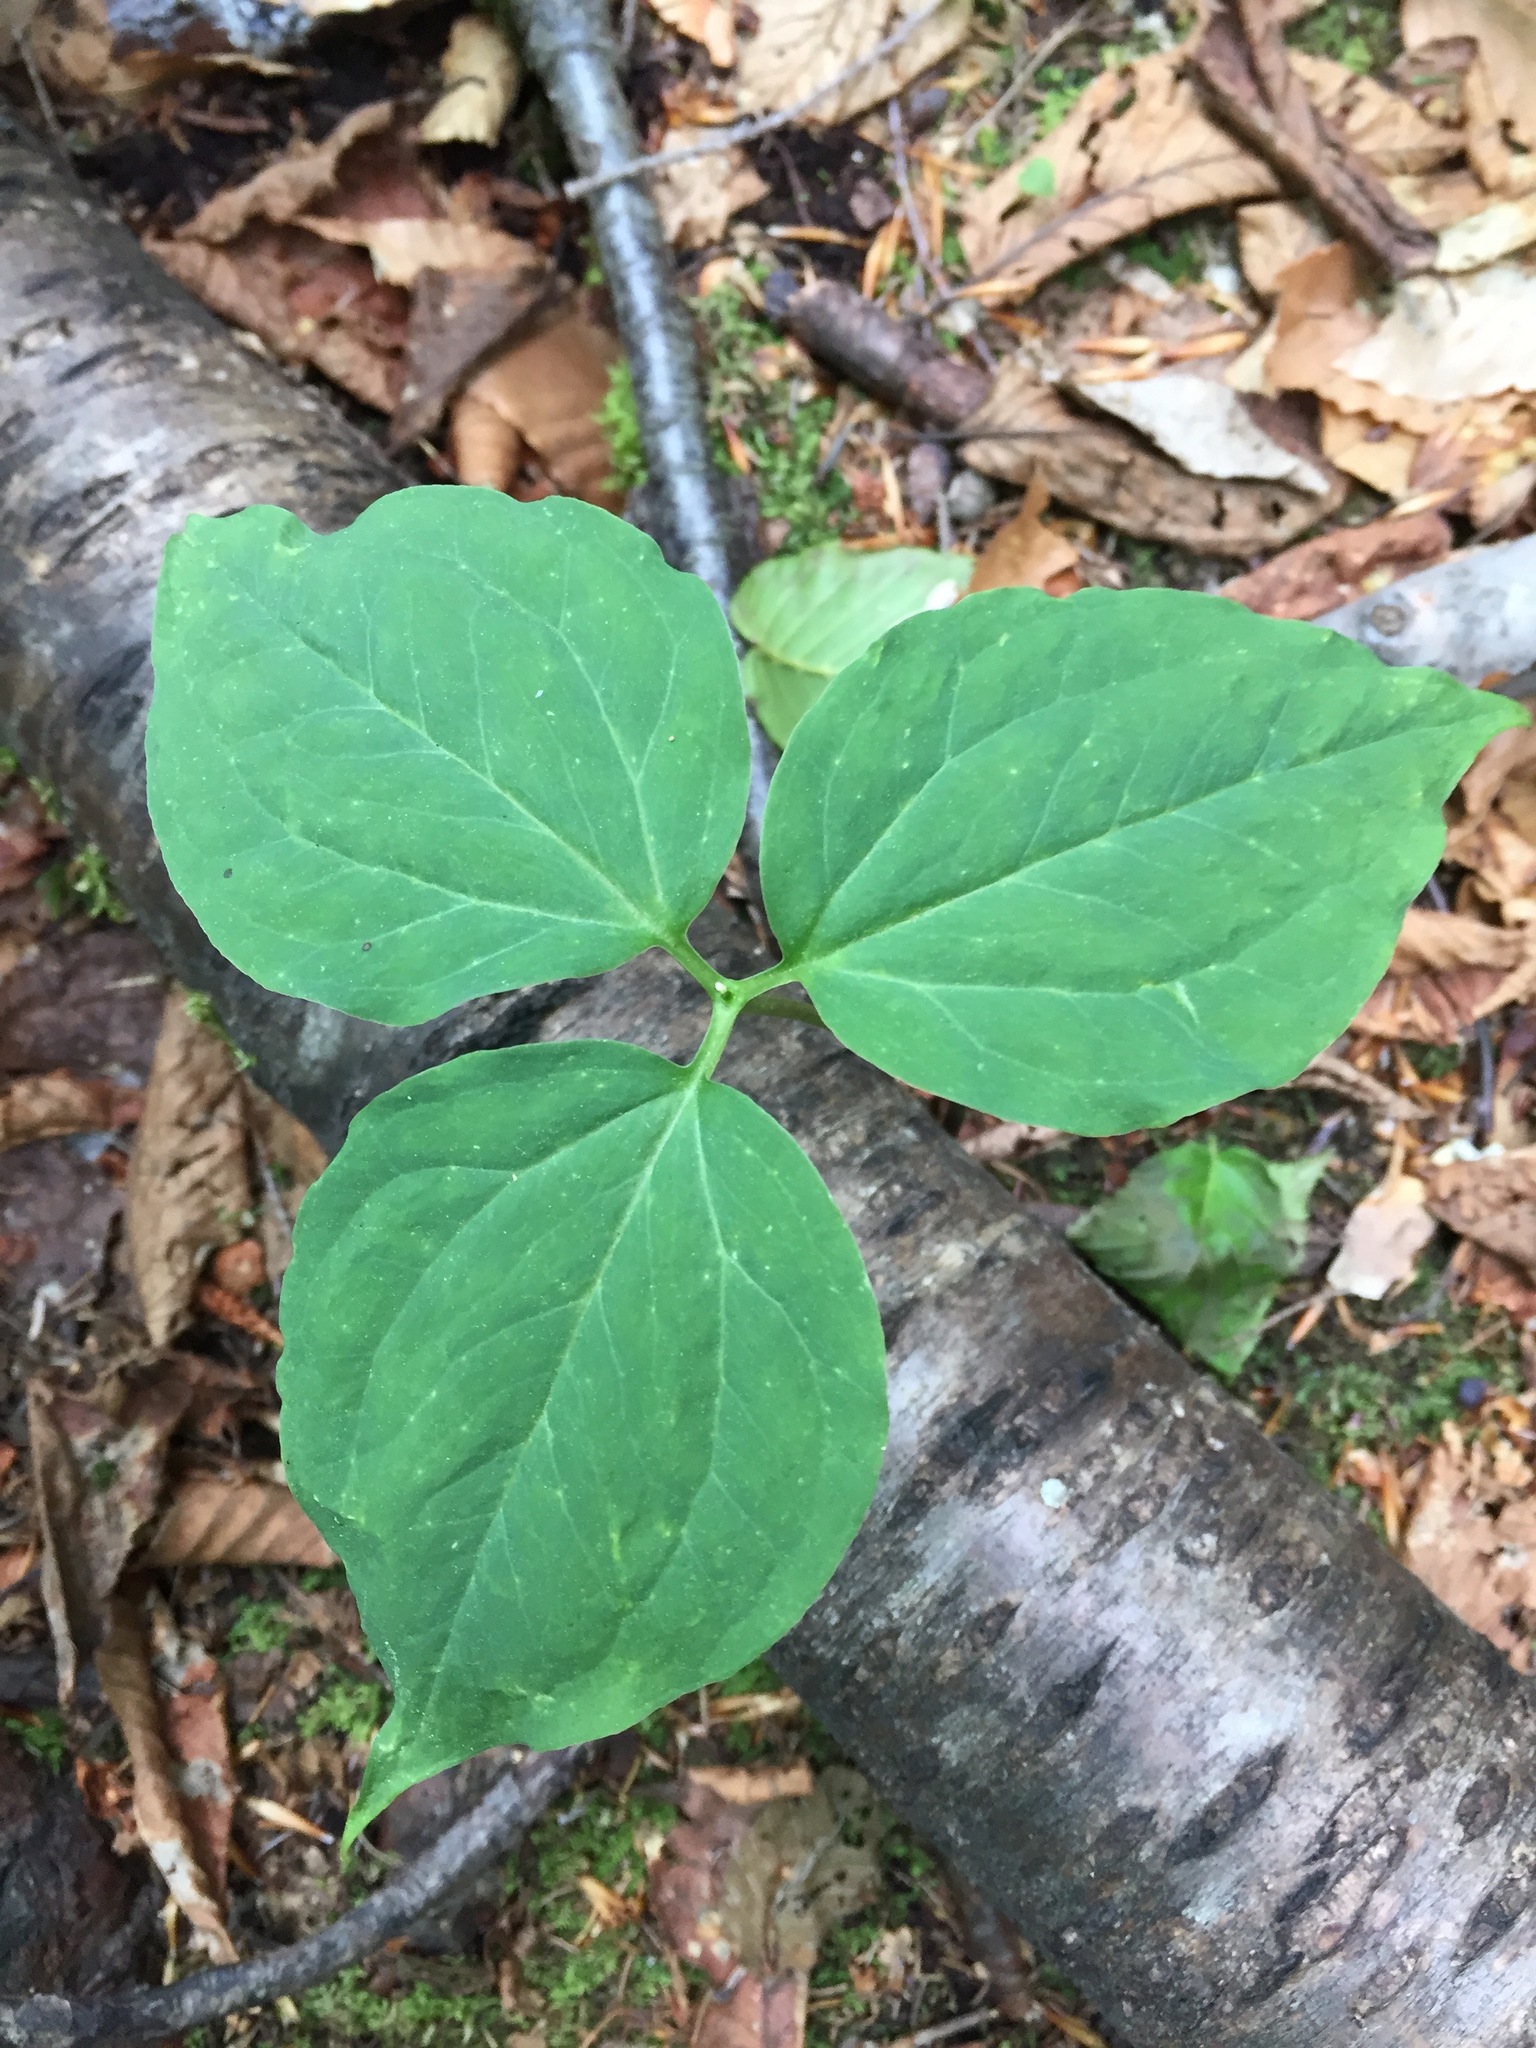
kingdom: Plantae
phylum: Tracheophyta
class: Liliopsida
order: Liliales
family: Melanthiaceae
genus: Trillium
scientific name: Trillium undulatum
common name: Paint trillium
